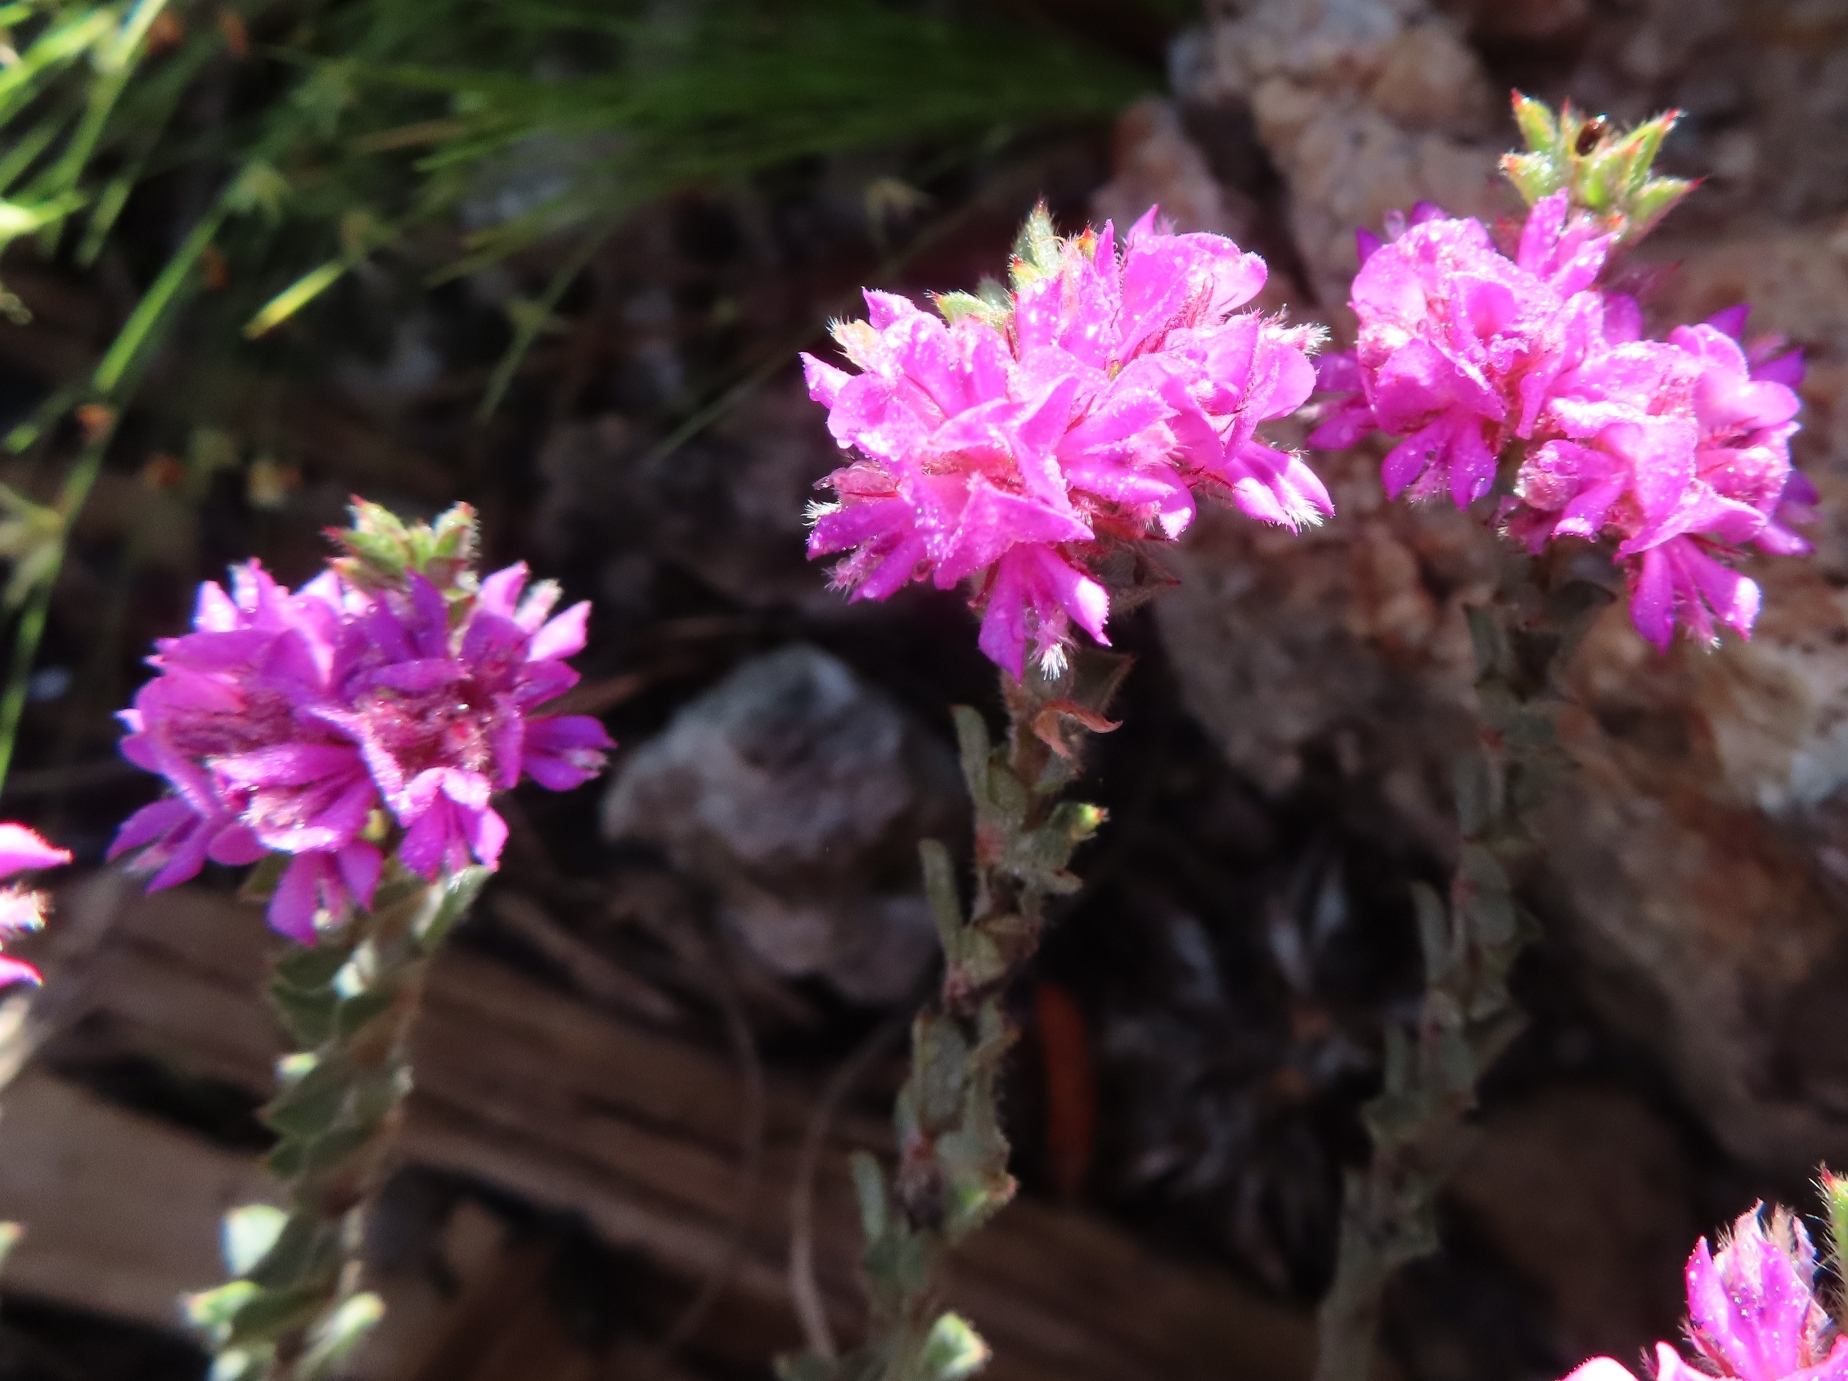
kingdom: Plantae
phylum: Tracheophyta
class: Magnoliopsida
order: Fabales
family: Fabaceae
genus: Indigofera
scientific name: Indigofera glomerata
